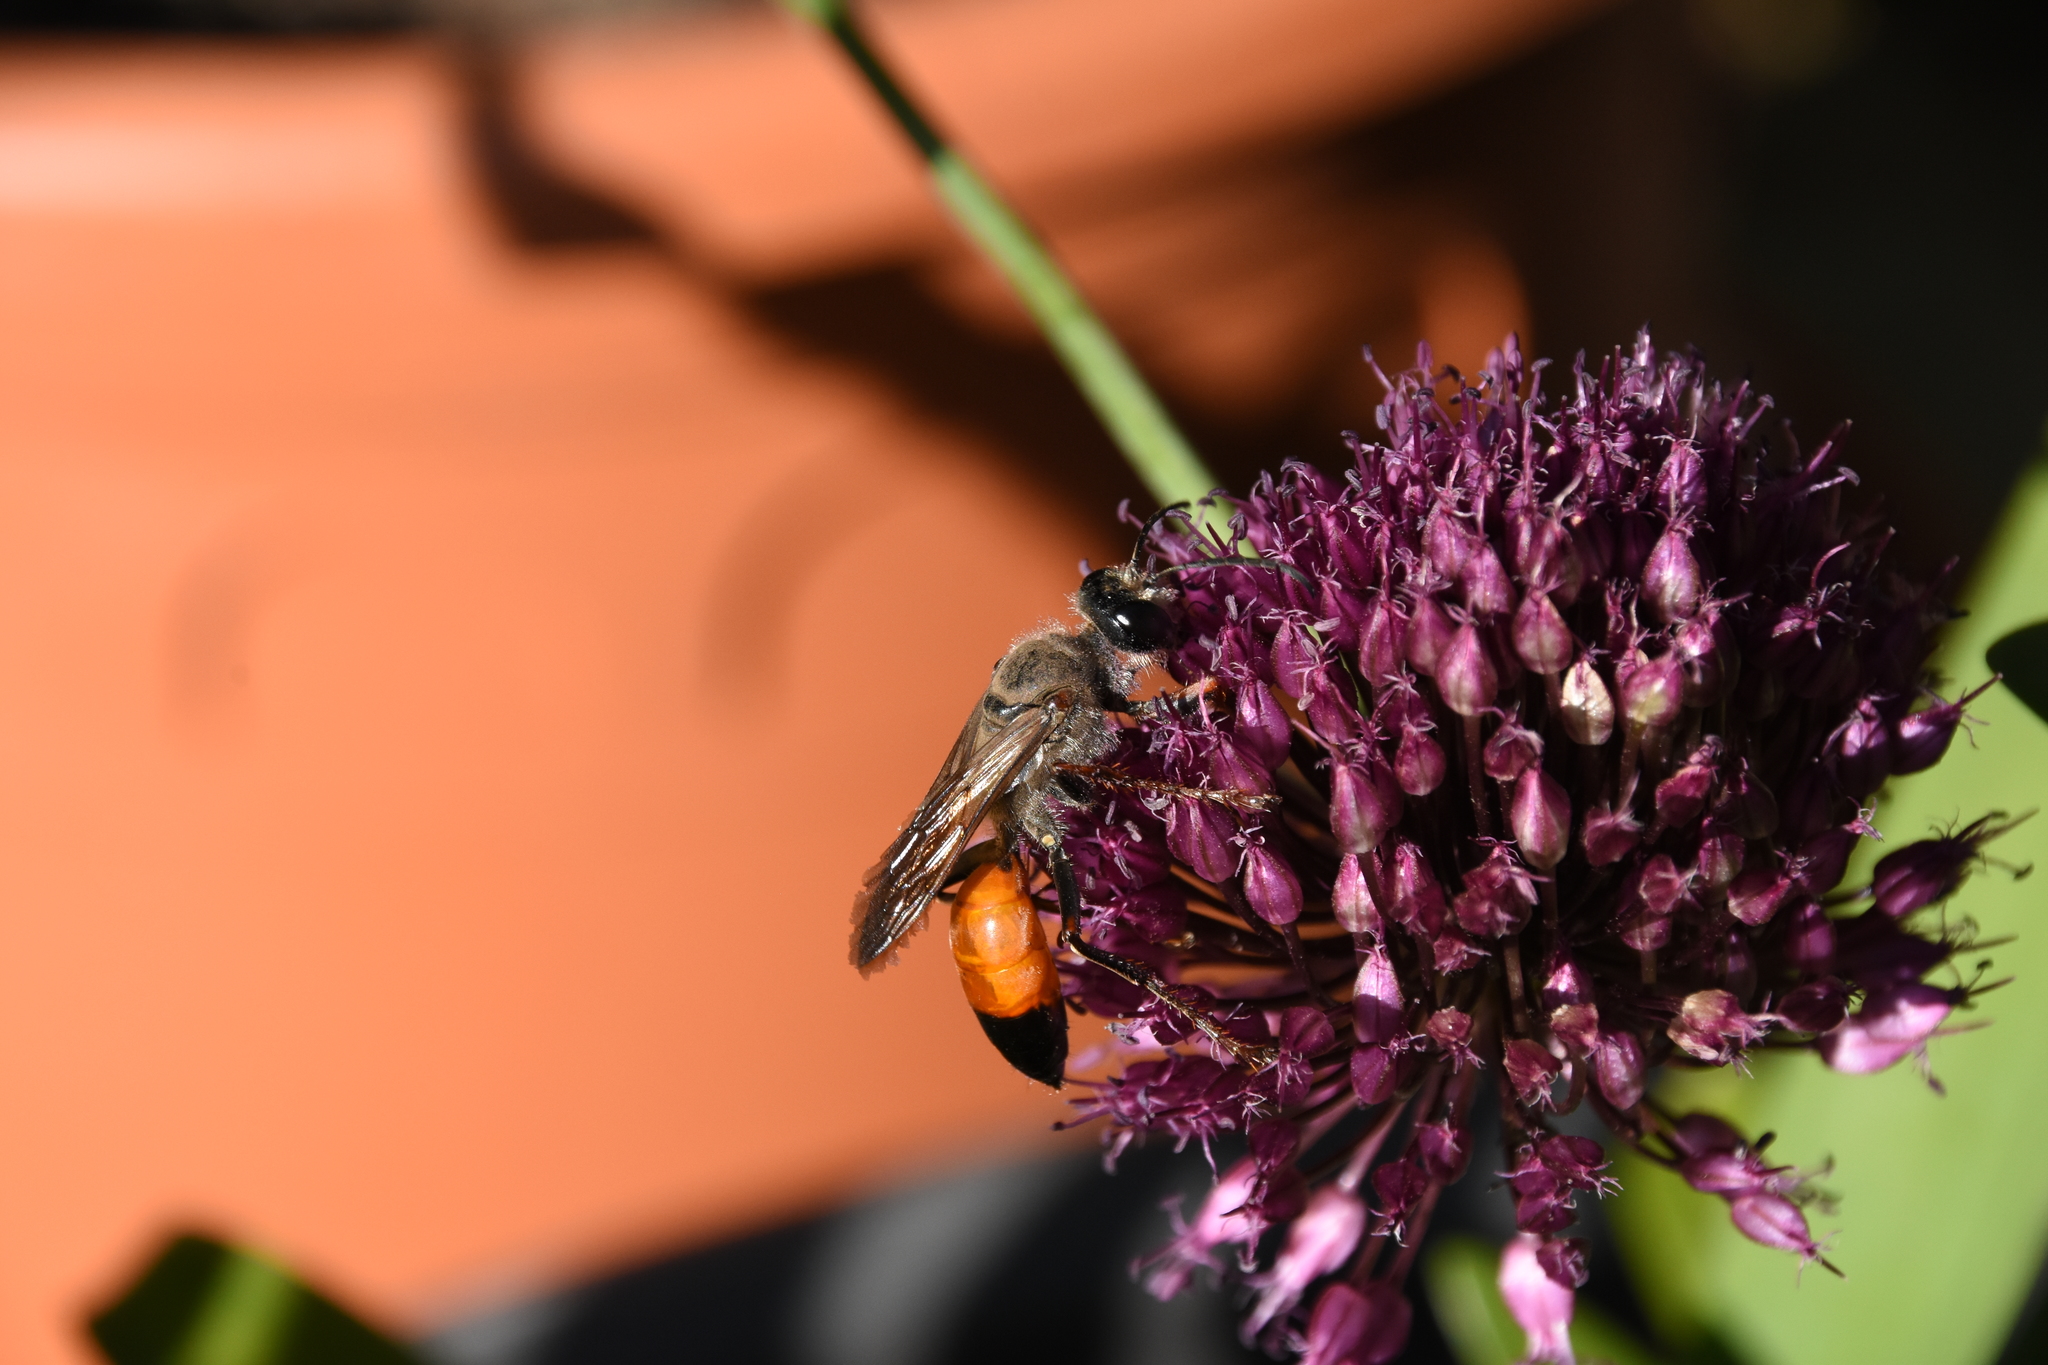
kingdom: Animalia
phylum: Arthropoda
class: Insecta
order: Hymenoptera
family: Sphecidae
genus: Sphex
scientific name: Sphex funerarius
